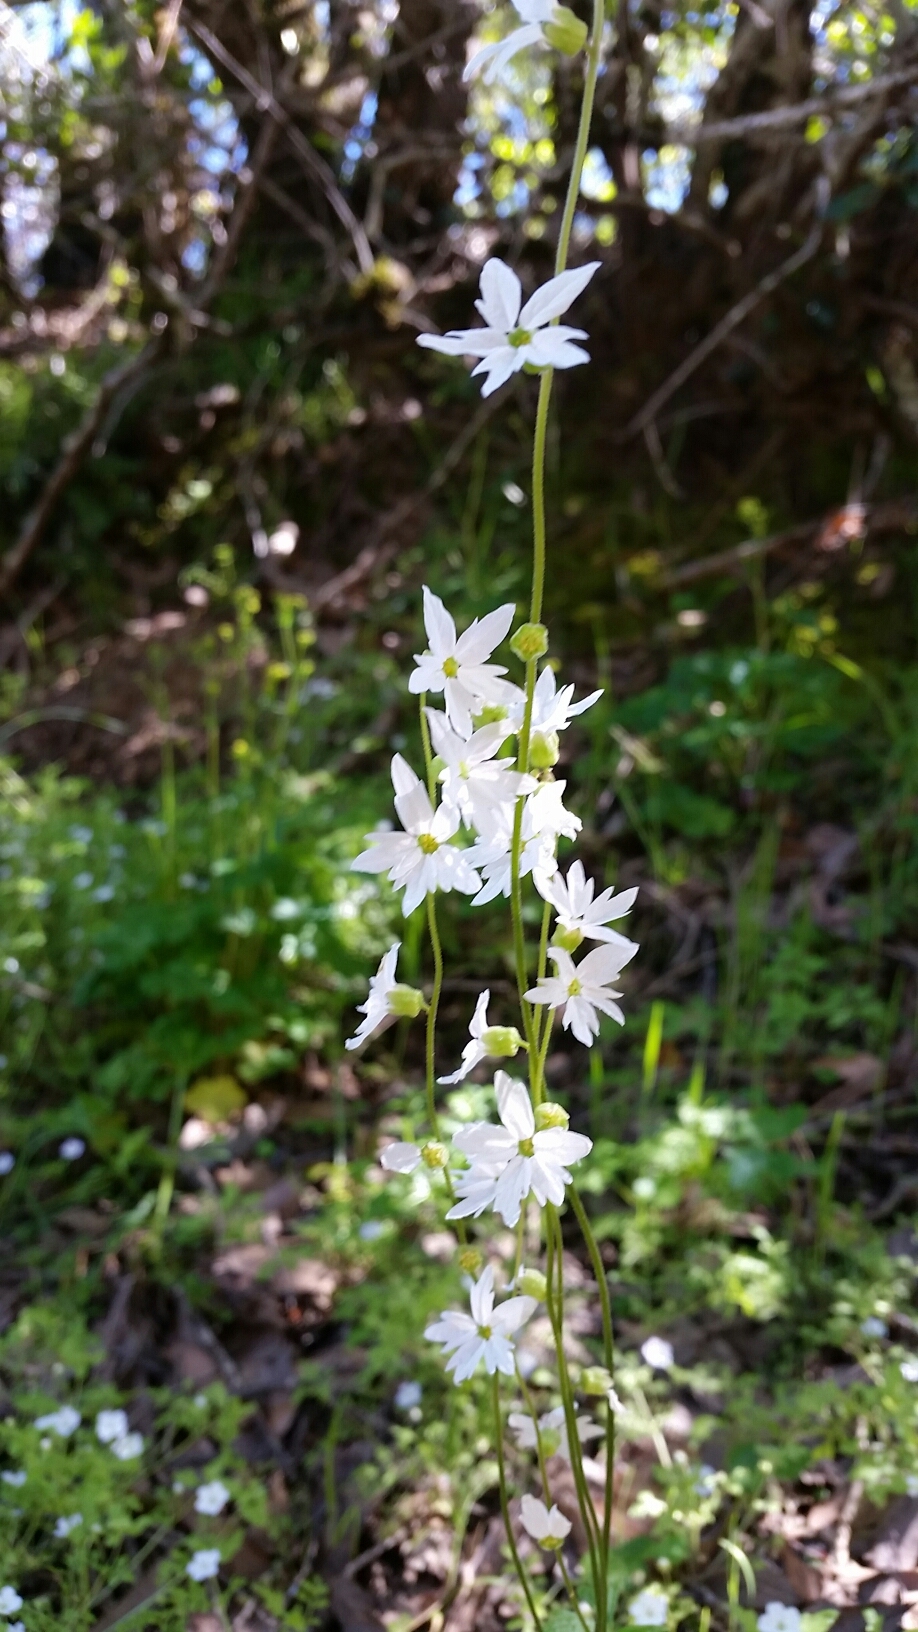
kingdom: Plantae
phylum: Tracheophyta
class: Magnoliopsida
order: Saxifragales
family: Saxifragaceae
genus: Lithophragma
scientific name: Lithophragma heterophyllum
